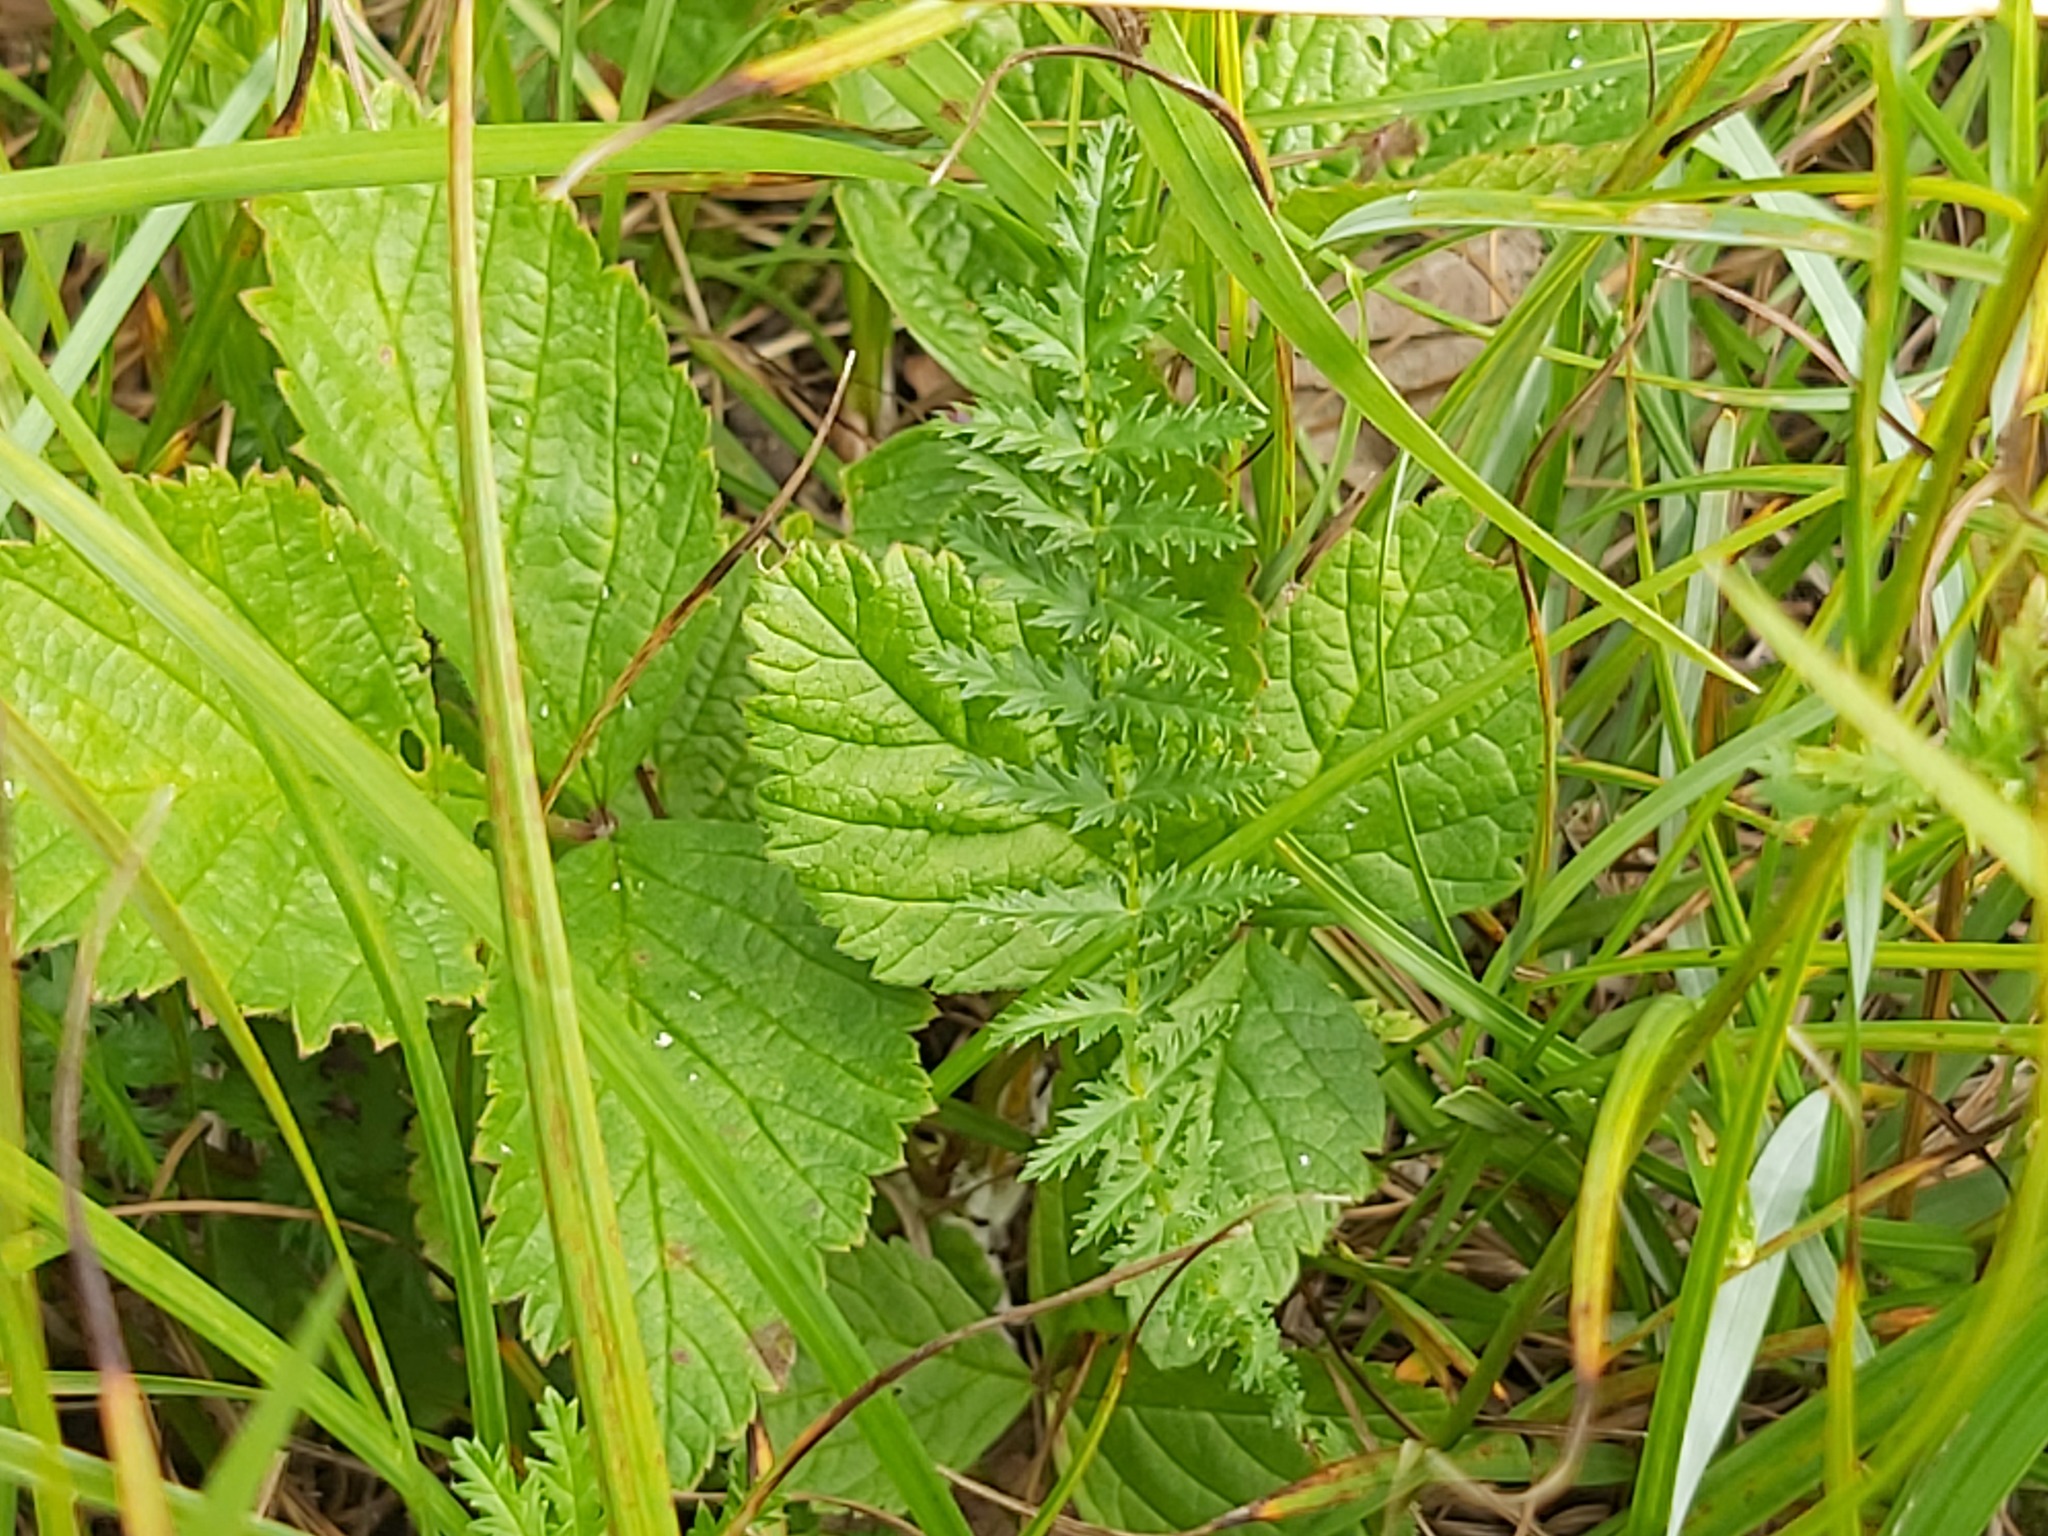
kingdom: Plantae
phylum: Tracheophyta
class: Magnoliopsida
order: Rosales
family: Rosaceae
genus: Filipendula
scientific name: Filipendula vulgaris
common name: Dropwort
